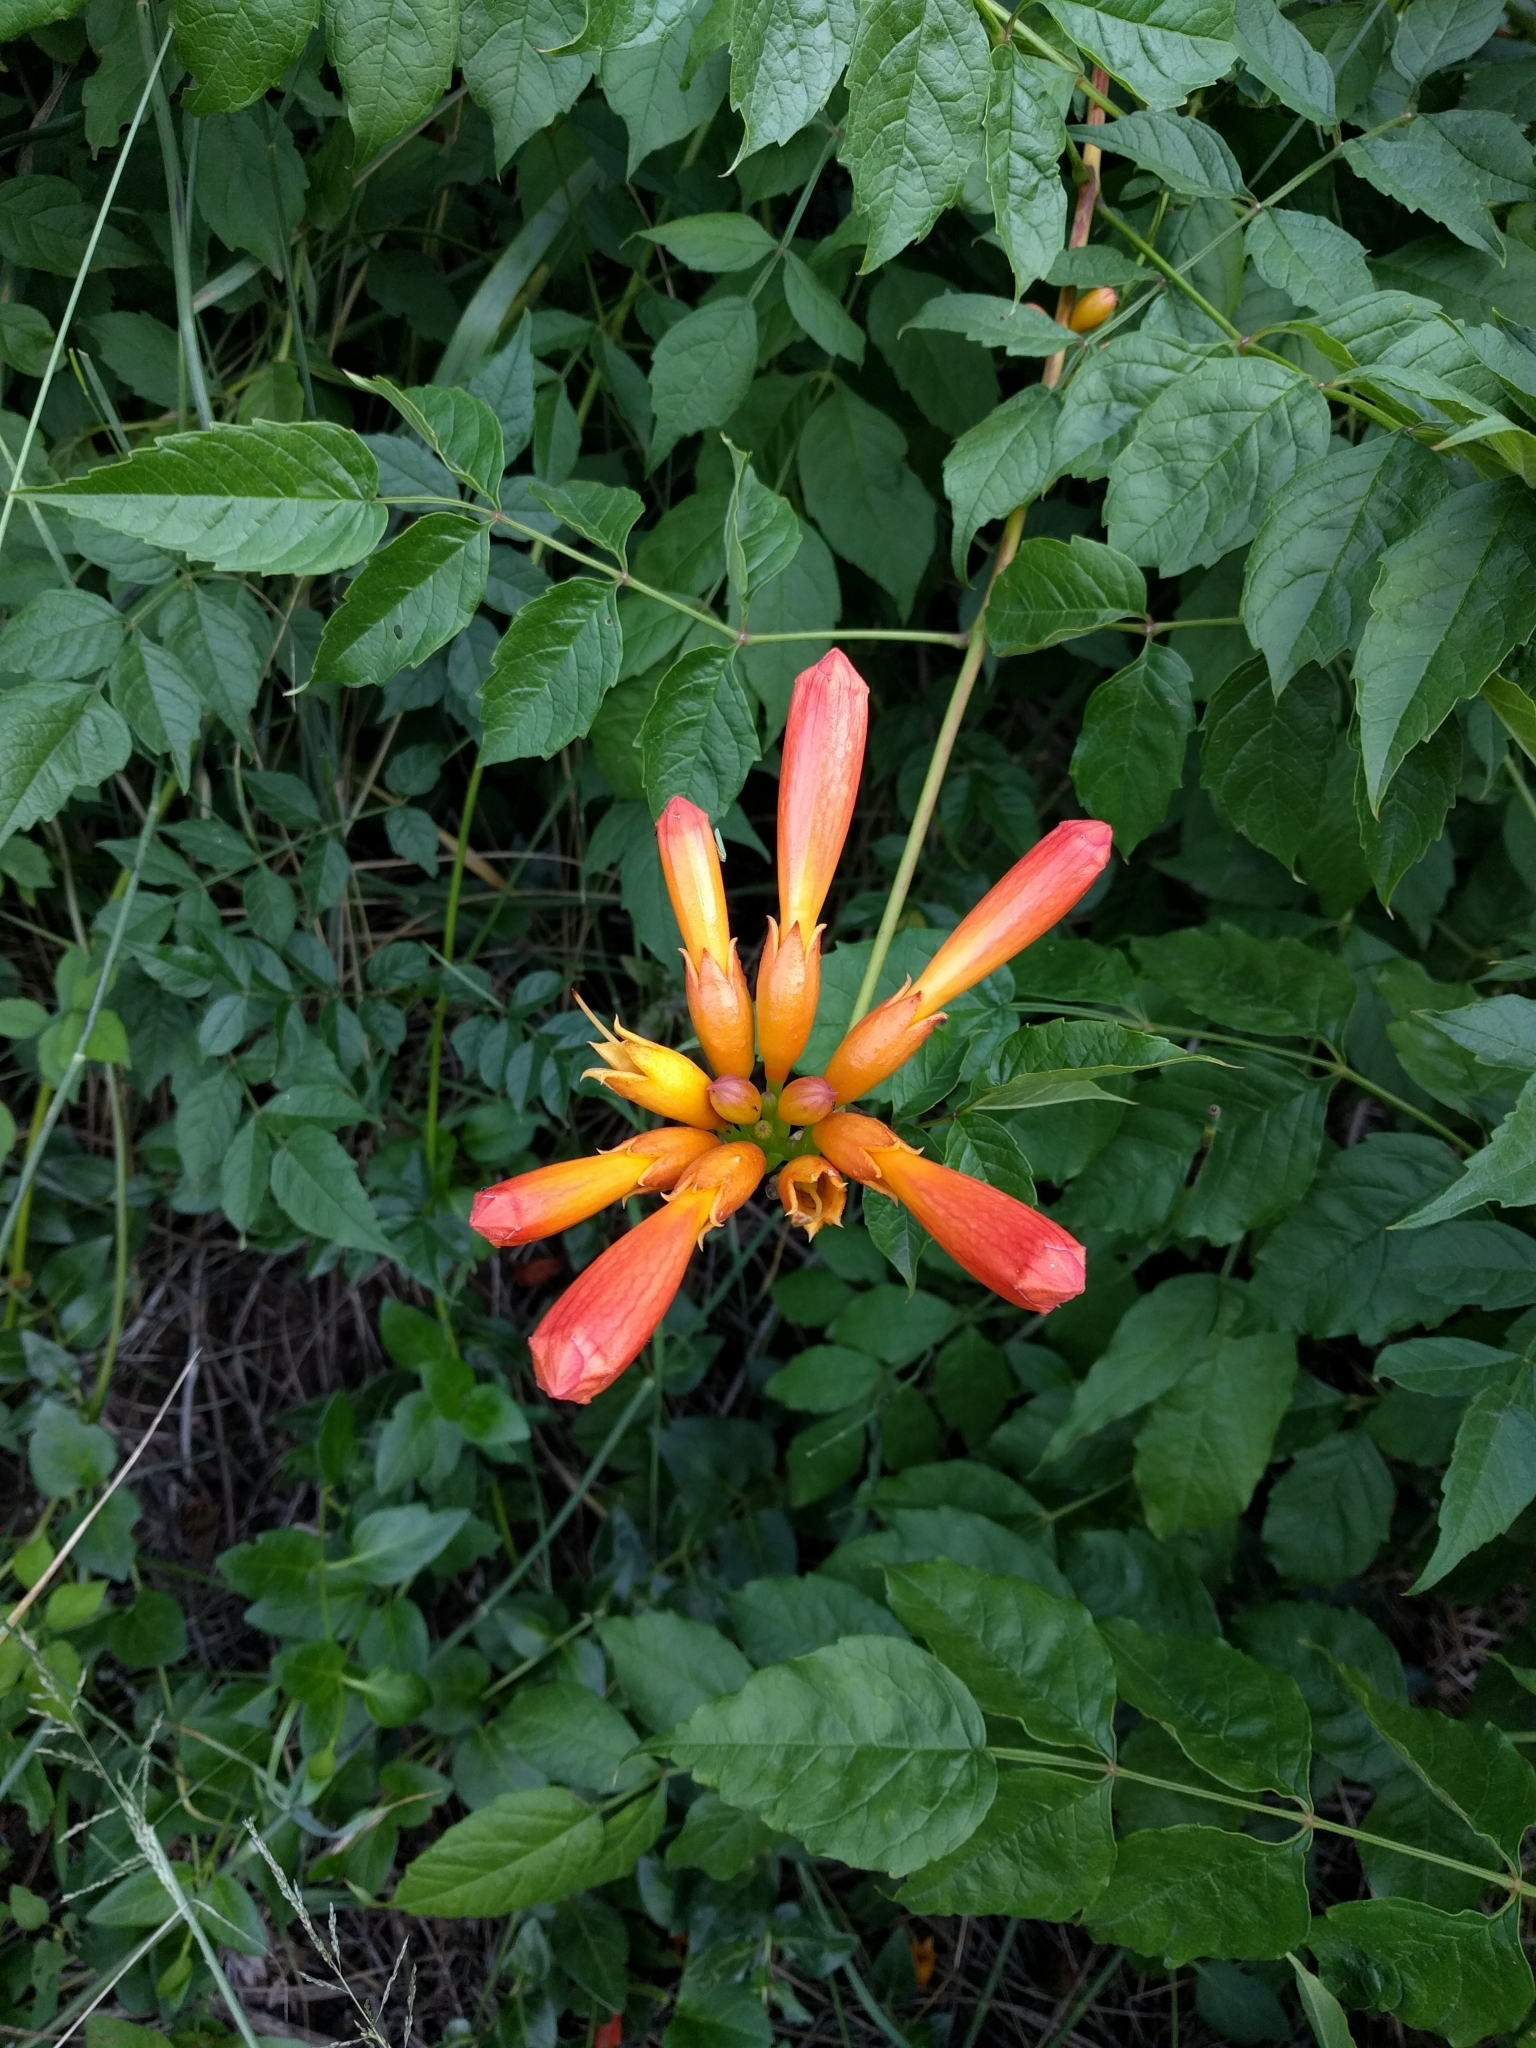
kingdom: Plantae
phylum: Tracheophyta
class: Magnoliopsida
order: Lamiales
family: Bignoniaceae
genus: Campsis
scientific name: Campsis radicans
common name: Trumpet-creeper
